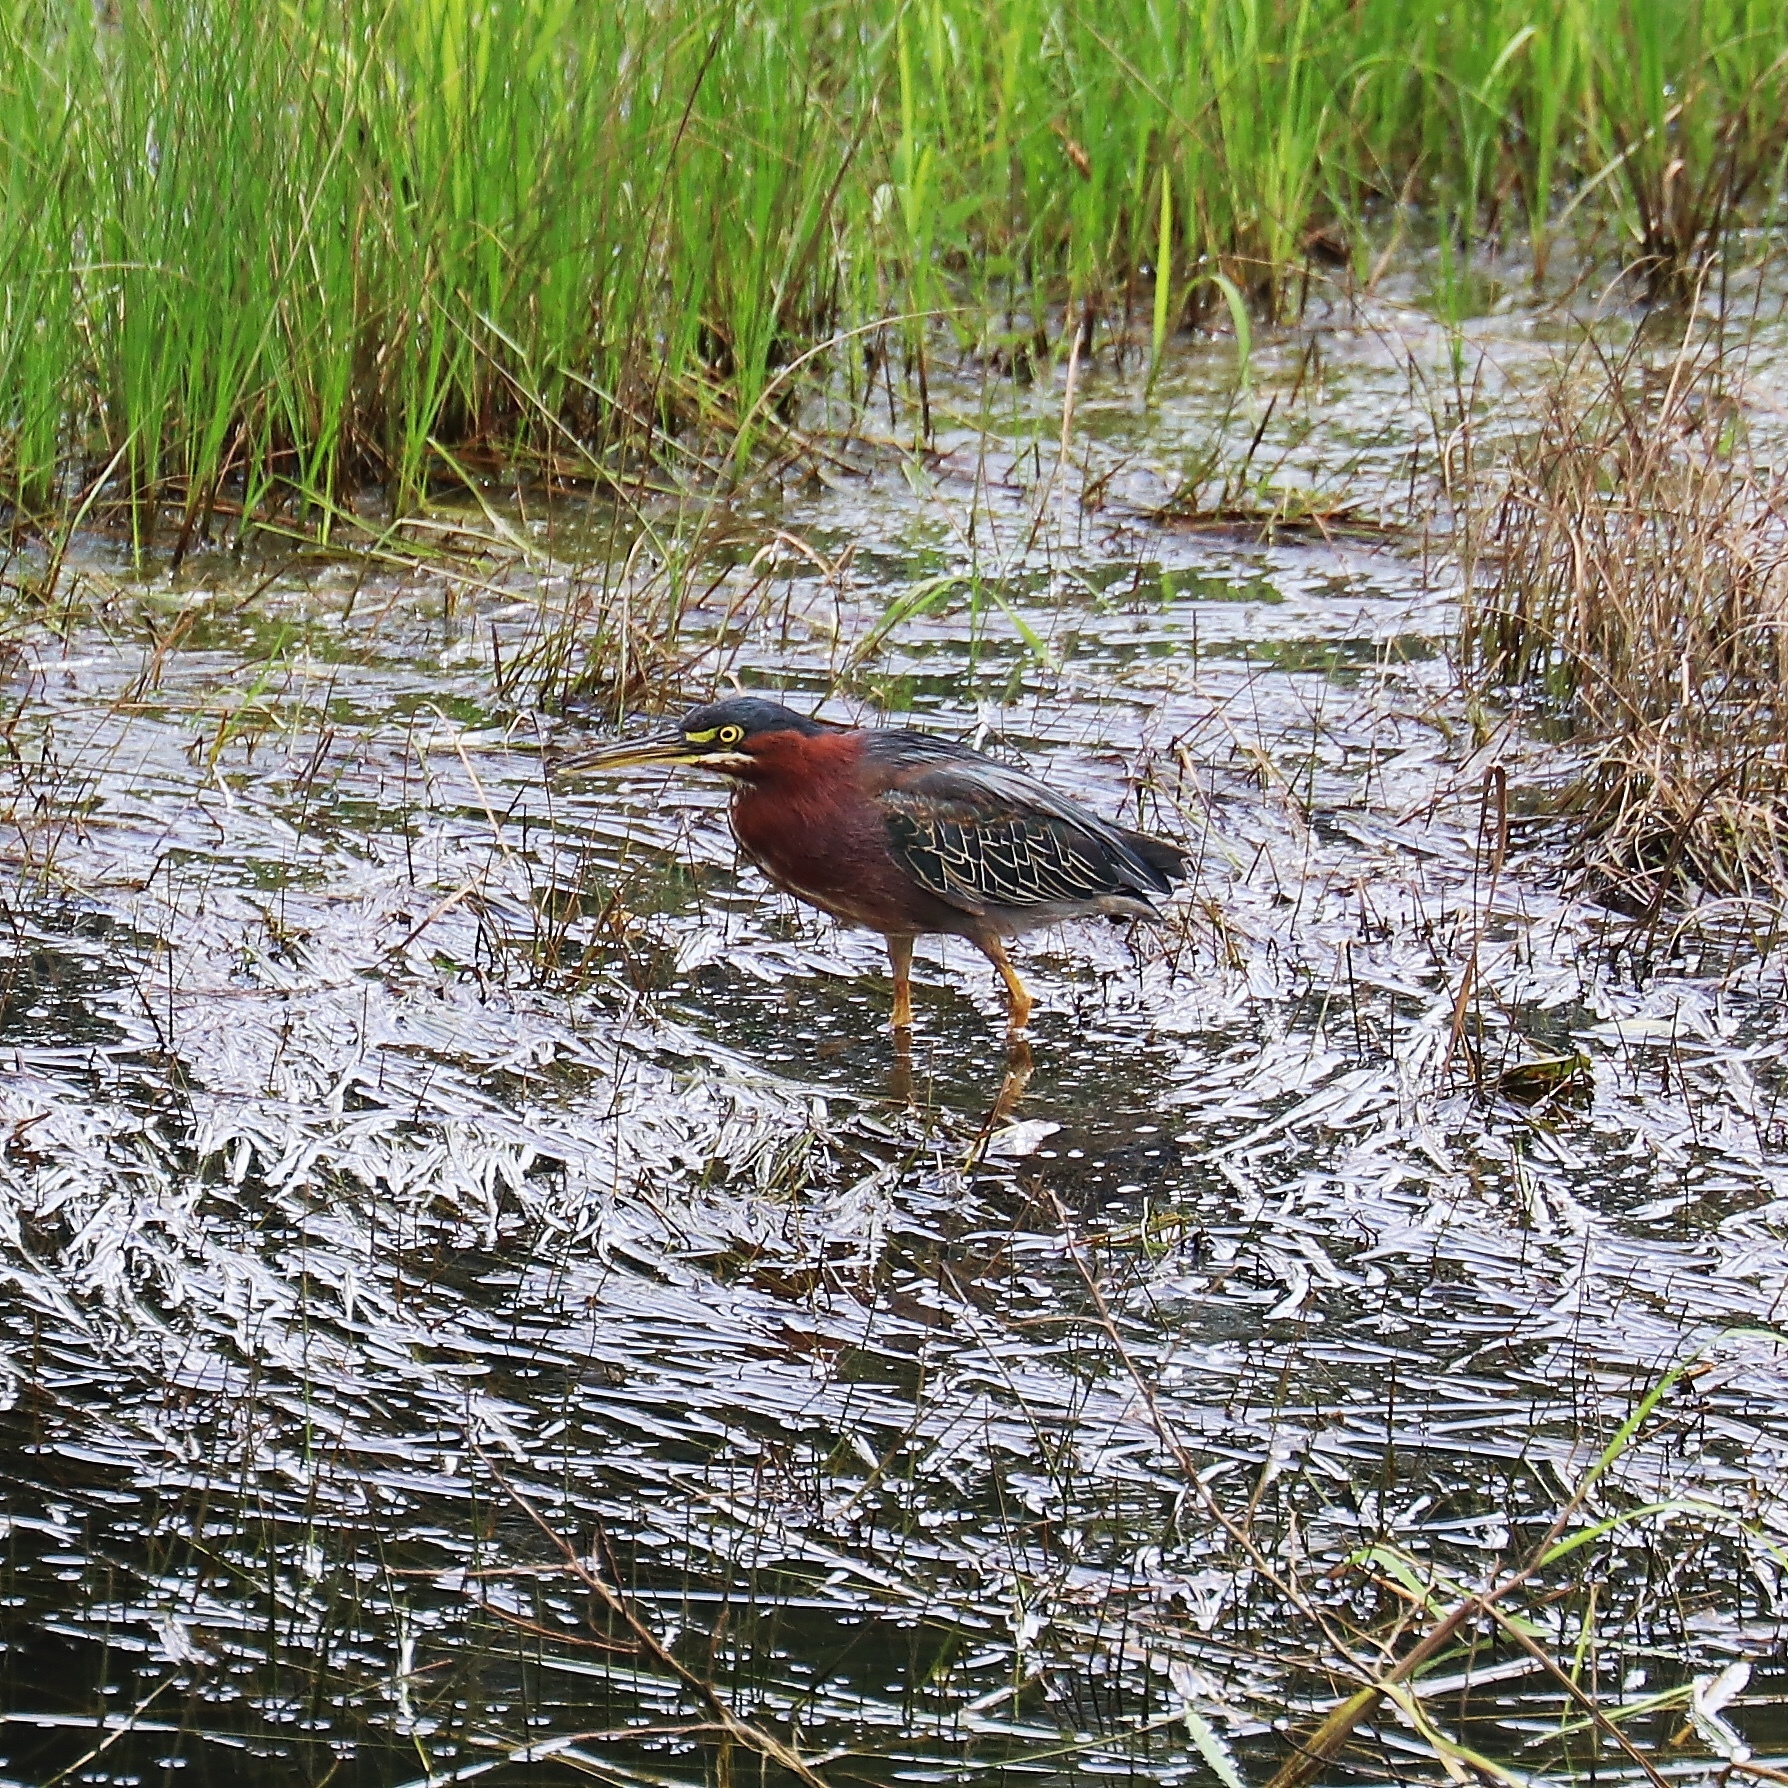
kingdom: Animalia
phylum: Chordata
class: Aves
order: Pelecaniformes
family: Ardeidae
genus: Butorides
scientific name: Butorides virescens
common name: Green heron
